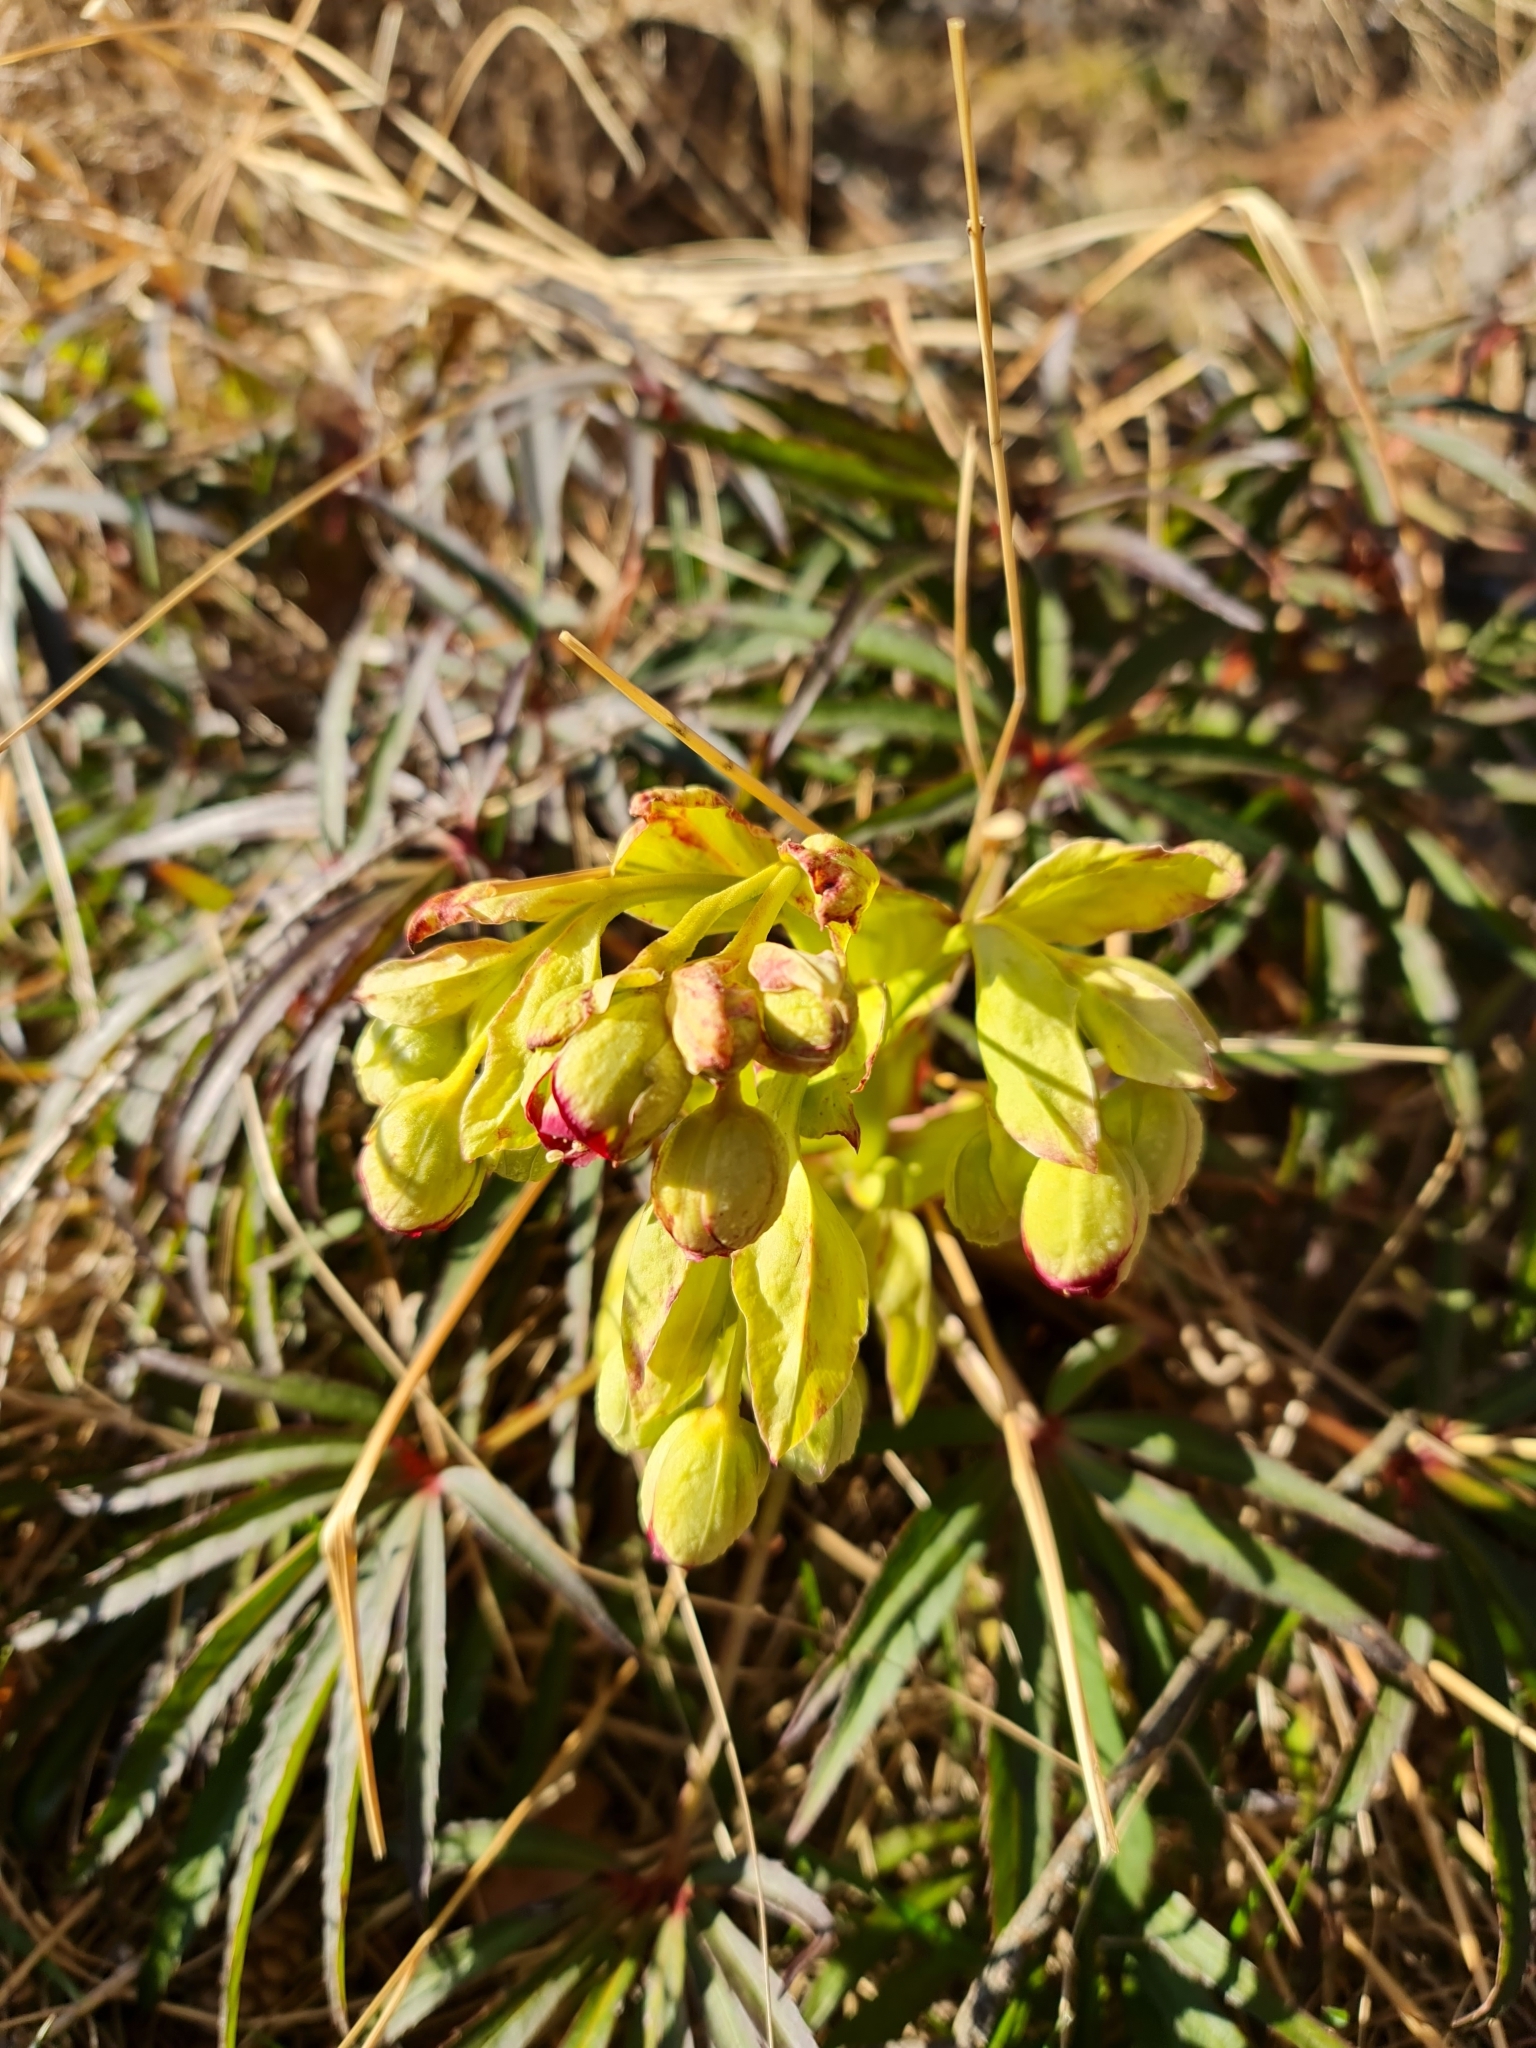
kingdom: Plantae
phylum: Tracheophyta
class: Magnoliopsida
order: Ranunculales
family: Ranunculaceae
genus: Helleborus
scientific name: Helleborus foetidus
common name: Stinking hellebore
